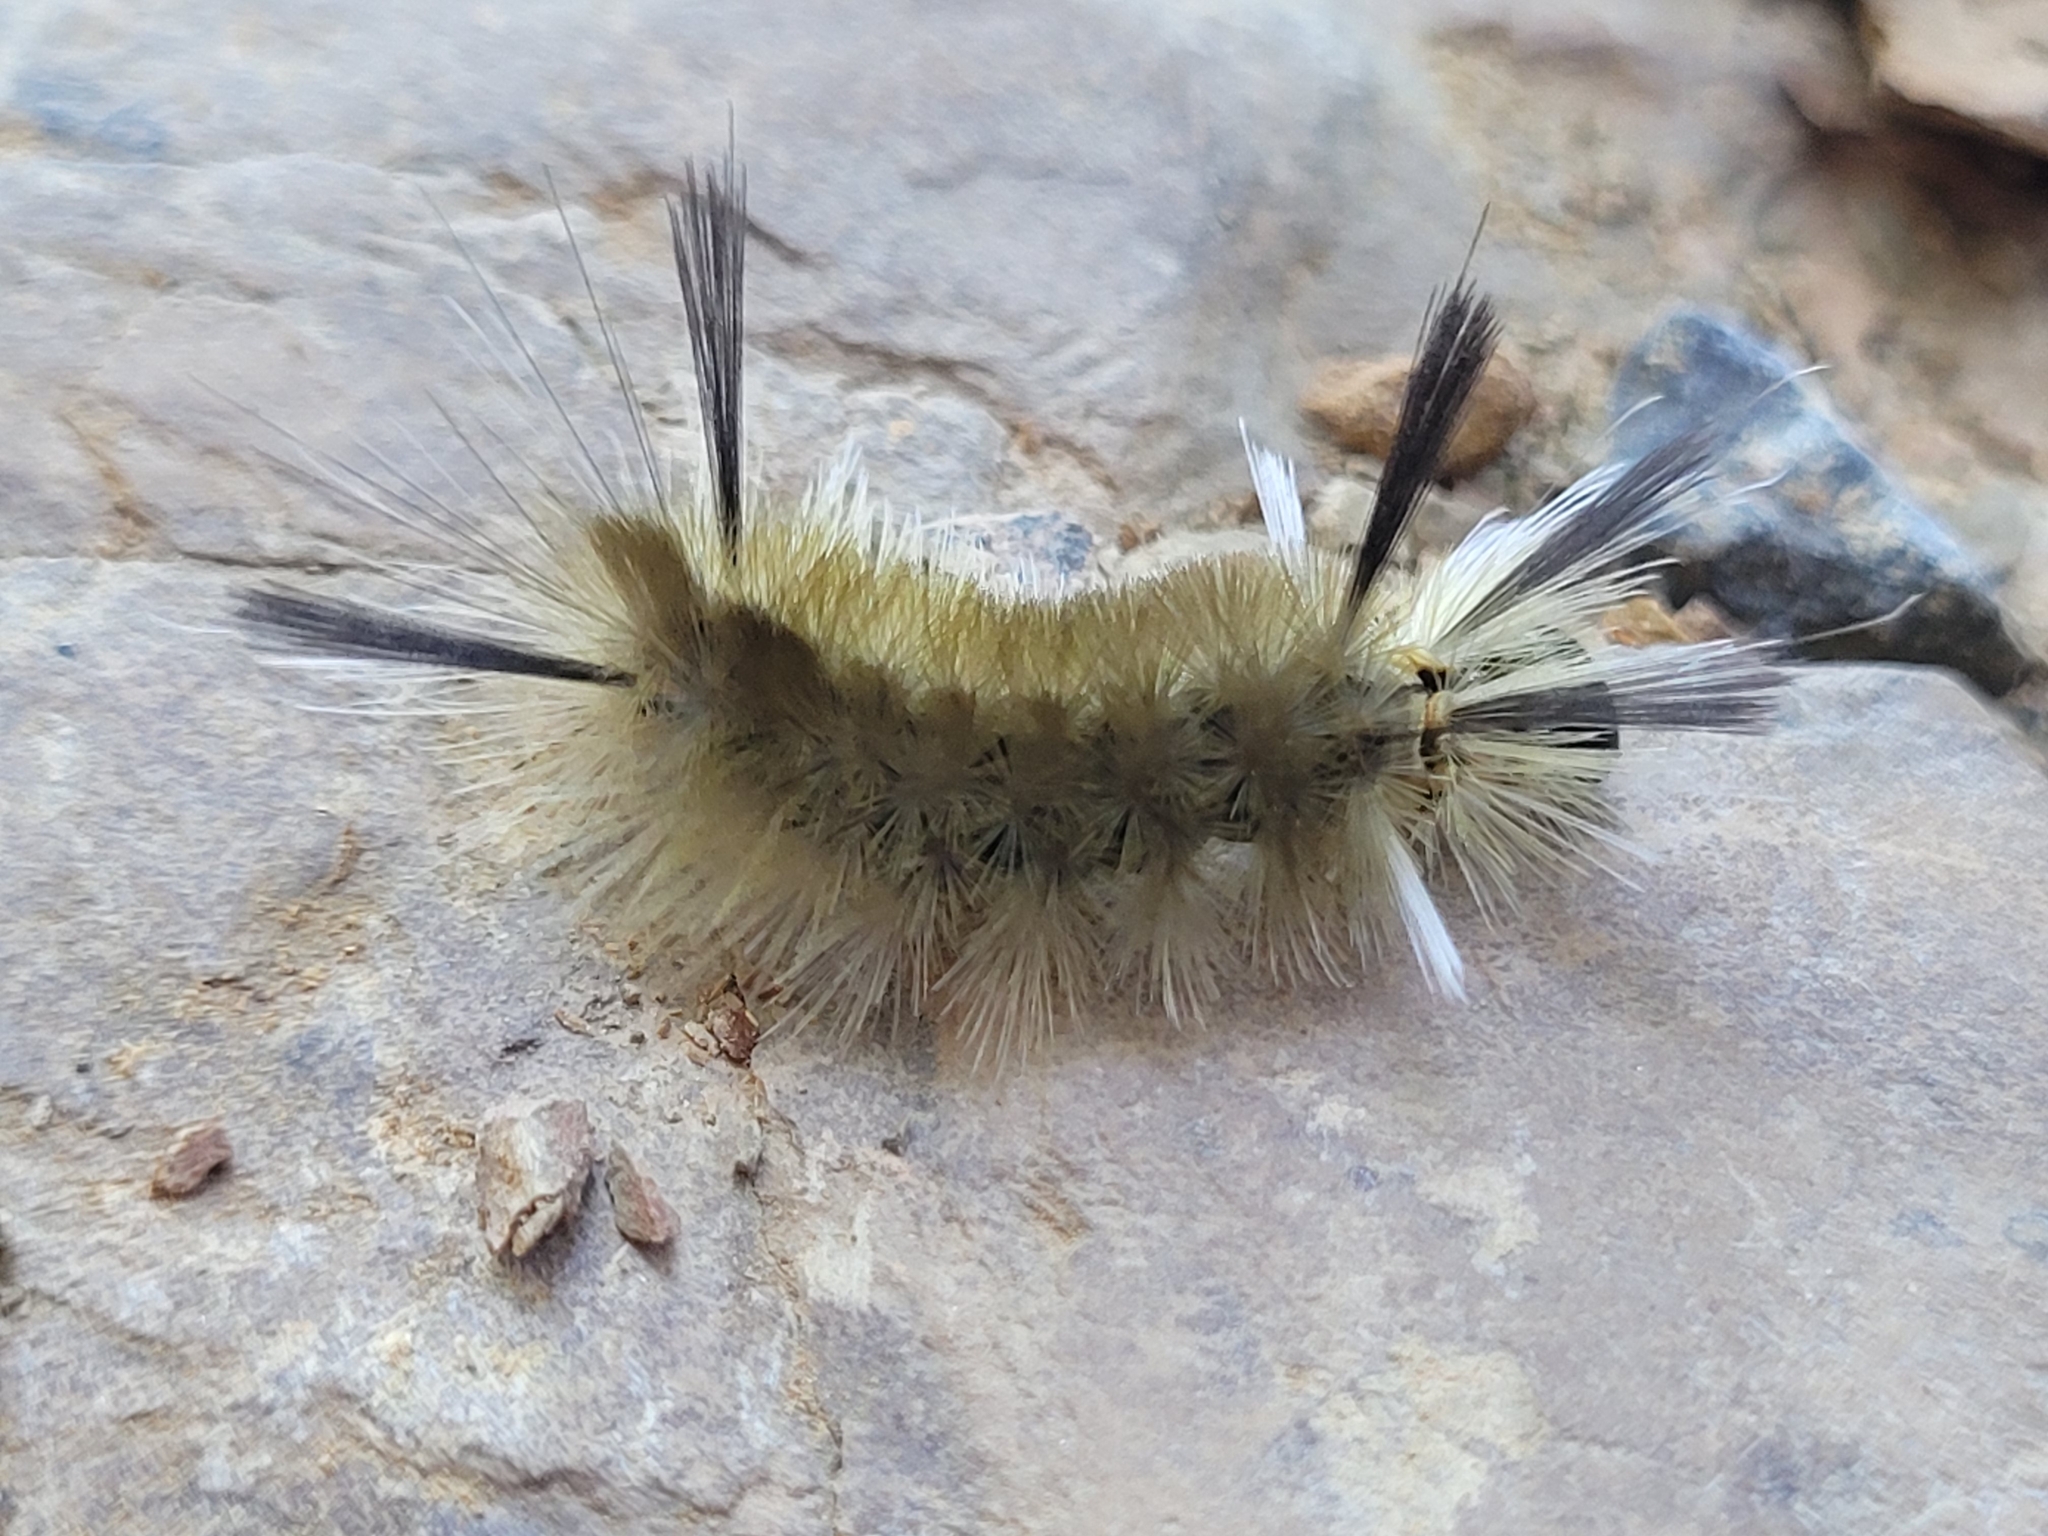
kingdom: Animalia
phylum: Arthropoda
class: Insecta
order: Lepidoptera
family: Erebidae
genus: Halysidota
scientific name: Halysidota tessellaris
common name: Banded tussock moth
